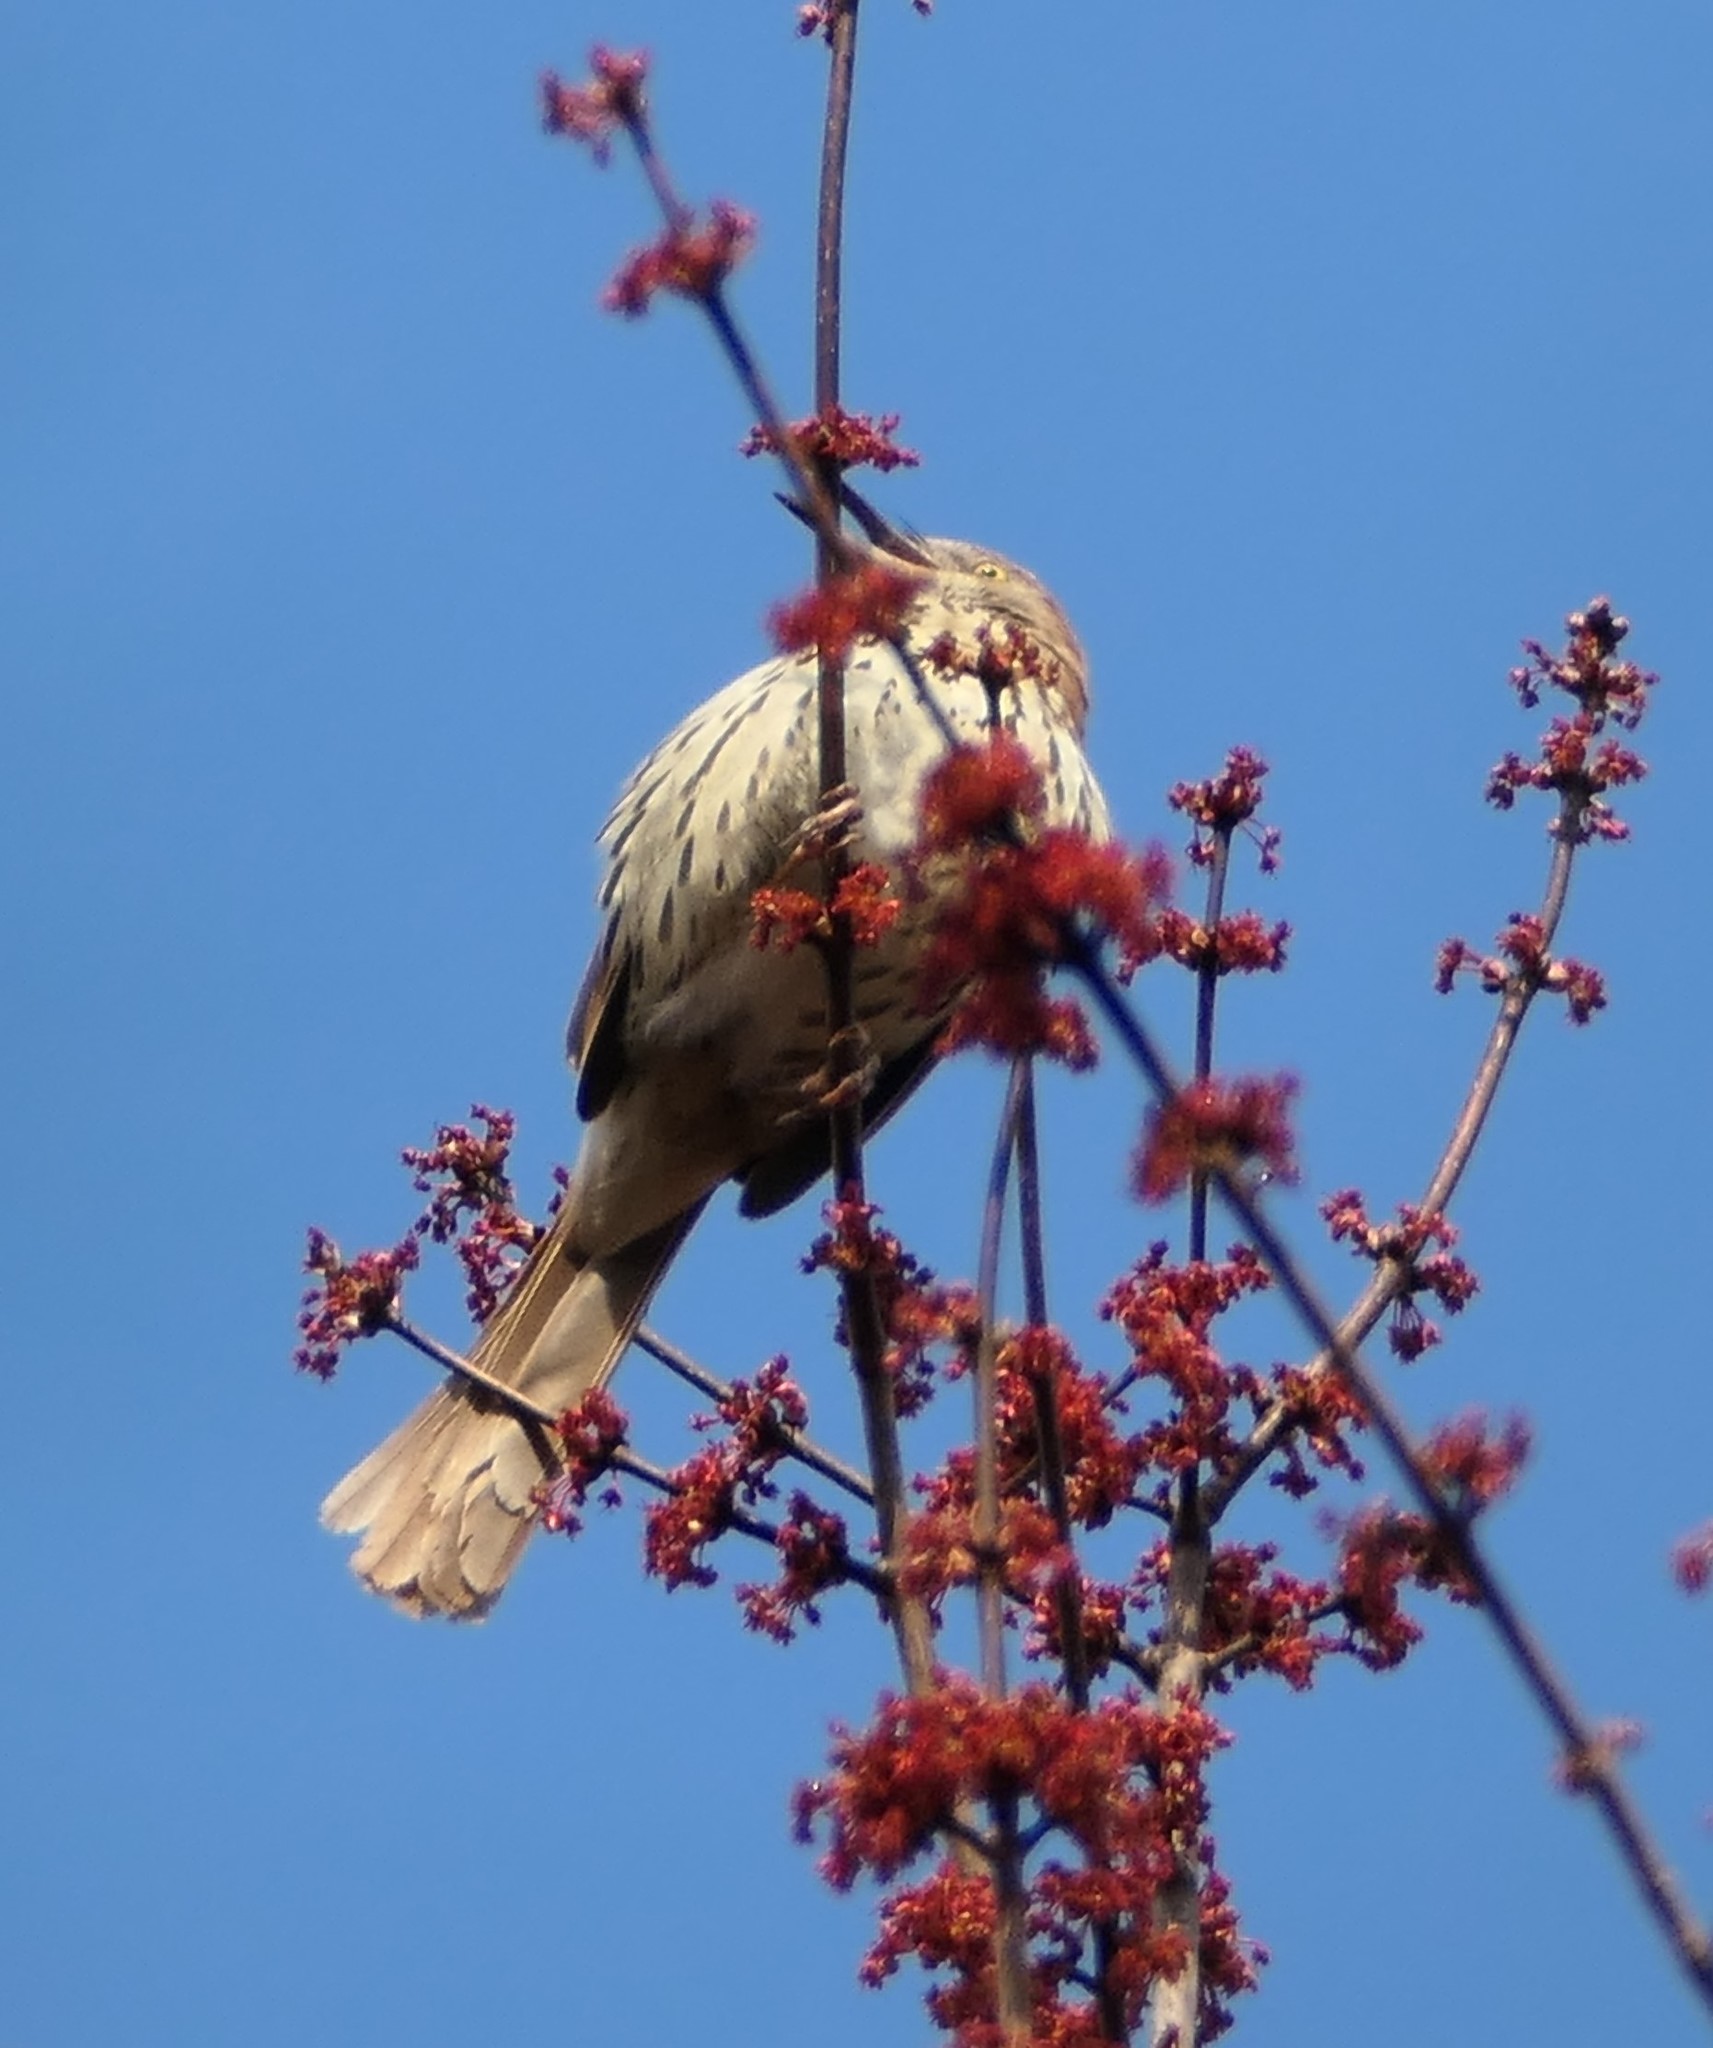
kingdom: Animalia
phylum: Chordata
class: Aves
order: Passeriformes
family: Mimidae
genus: Toxostoma
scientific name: Toxostoma rufum
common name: Brown thrasher
